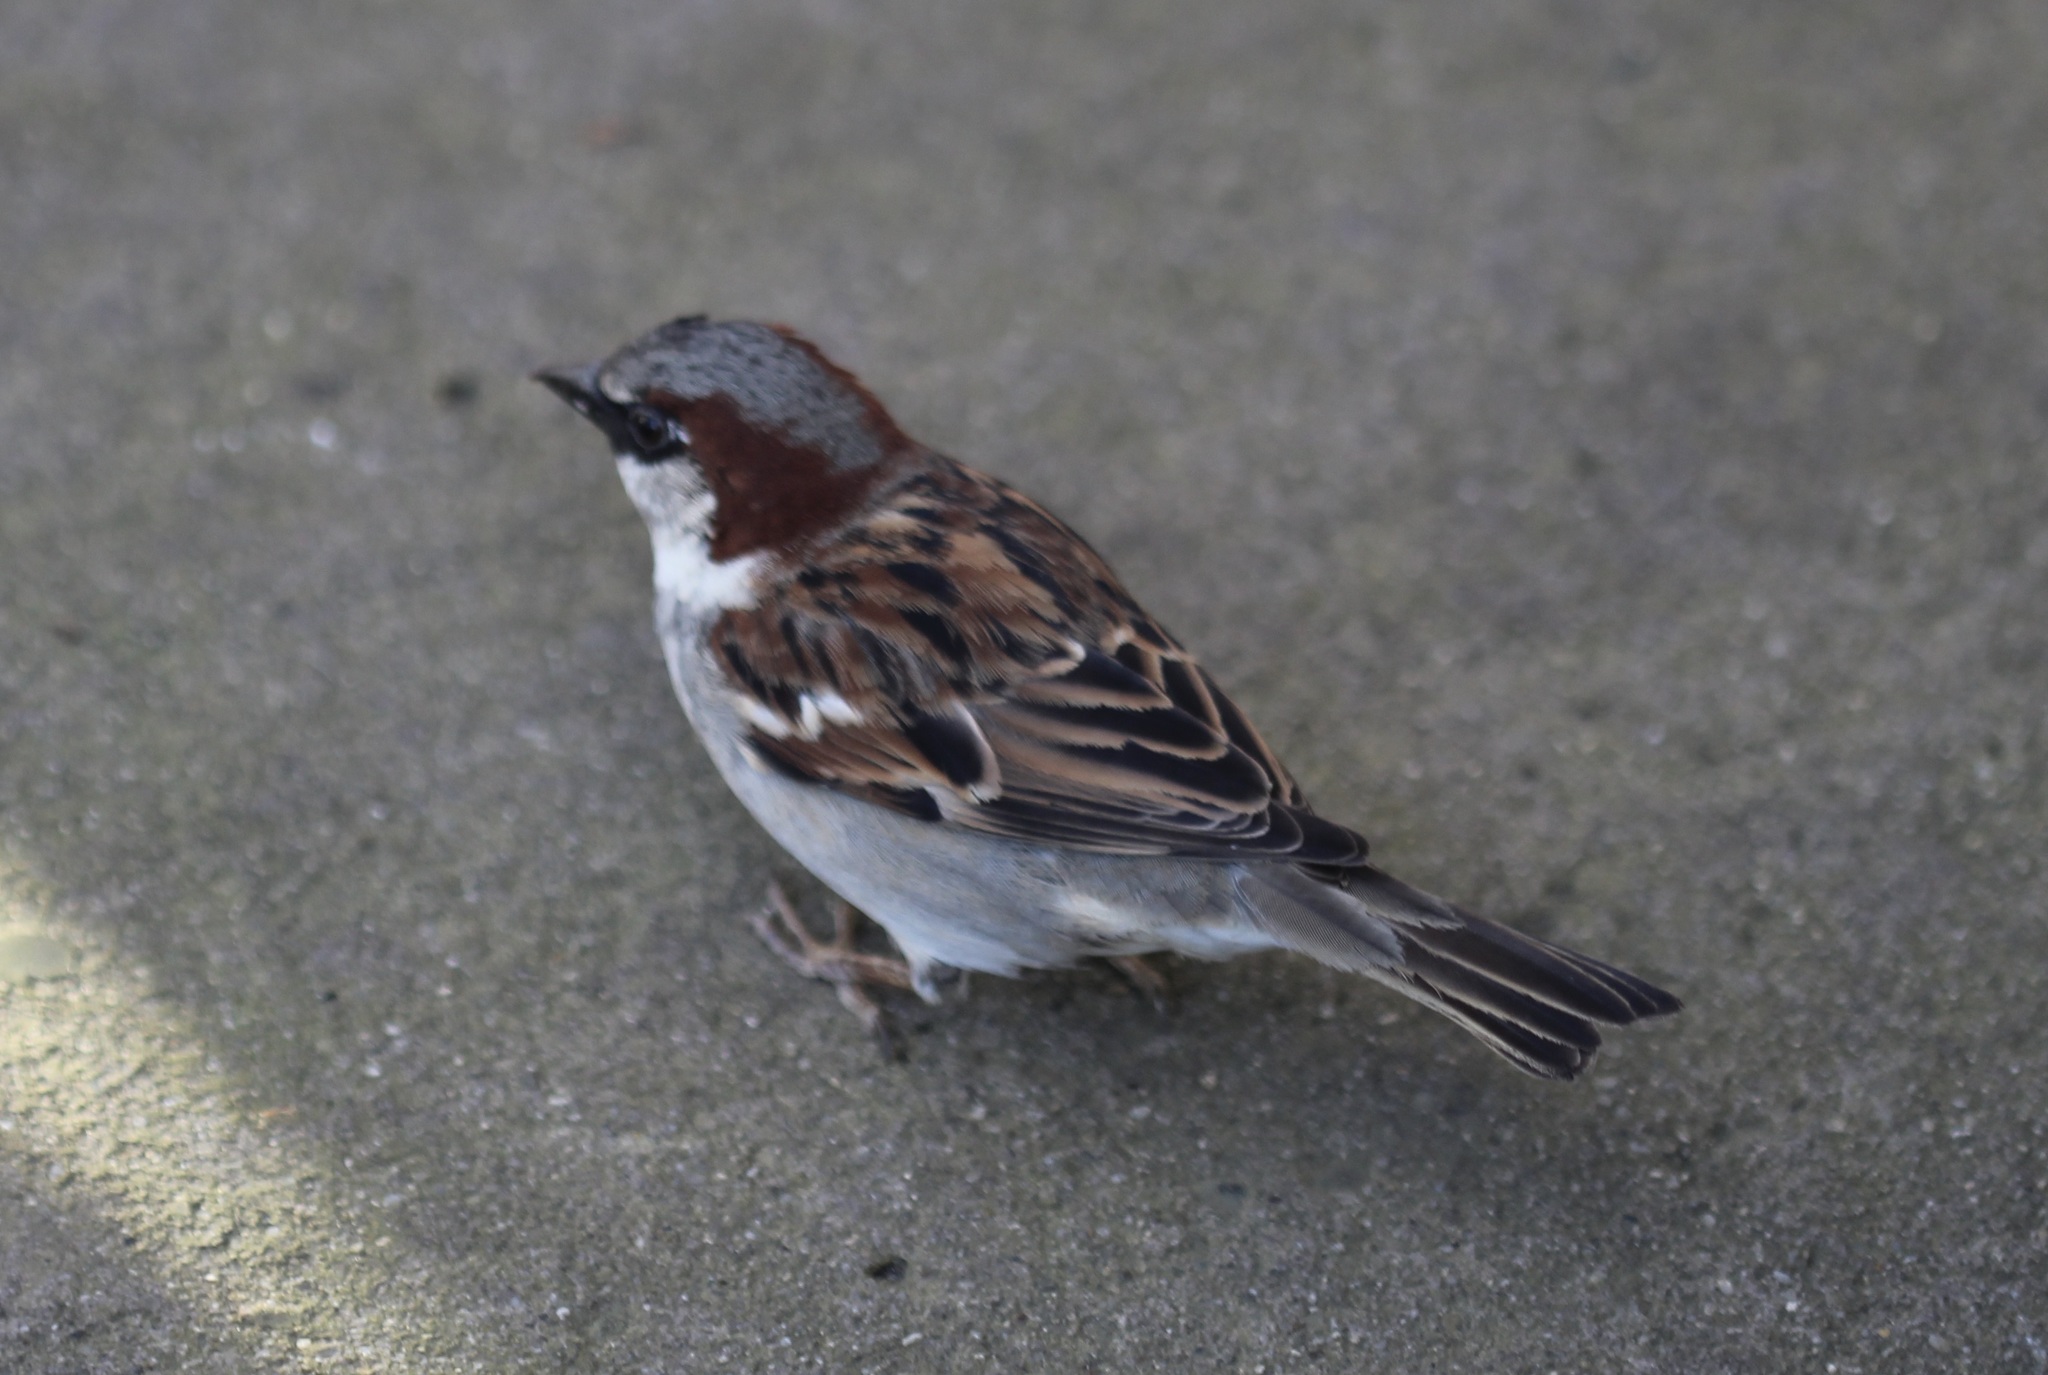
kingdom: Animalia
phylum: Chordata
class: Aves
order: Passeriformes
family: Passeridae
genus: Passer
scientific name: Passer domesticus
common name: House sparrow
